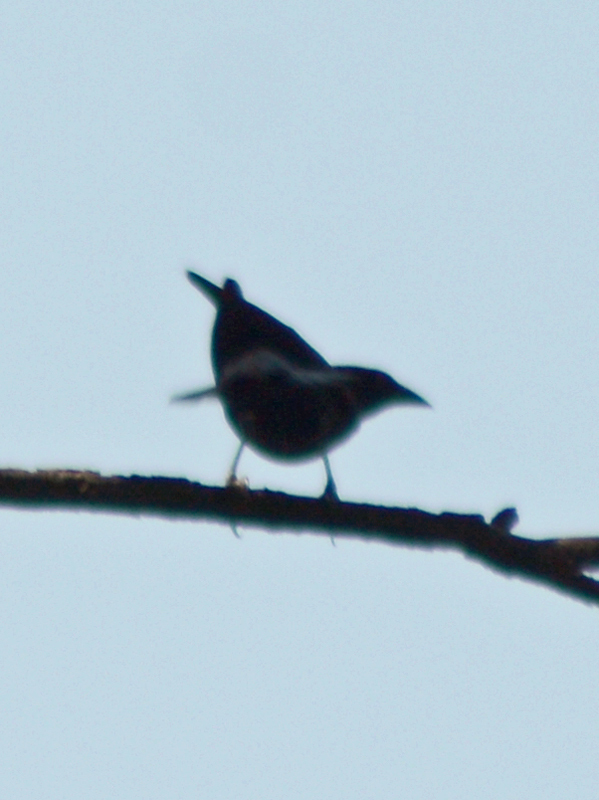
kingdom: Animalia
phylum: Chordata
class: Aves
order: Passeriformes
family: Icteridae
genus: Molothrus
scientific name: Molothrus aeneus
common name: Bronzed cowbird
